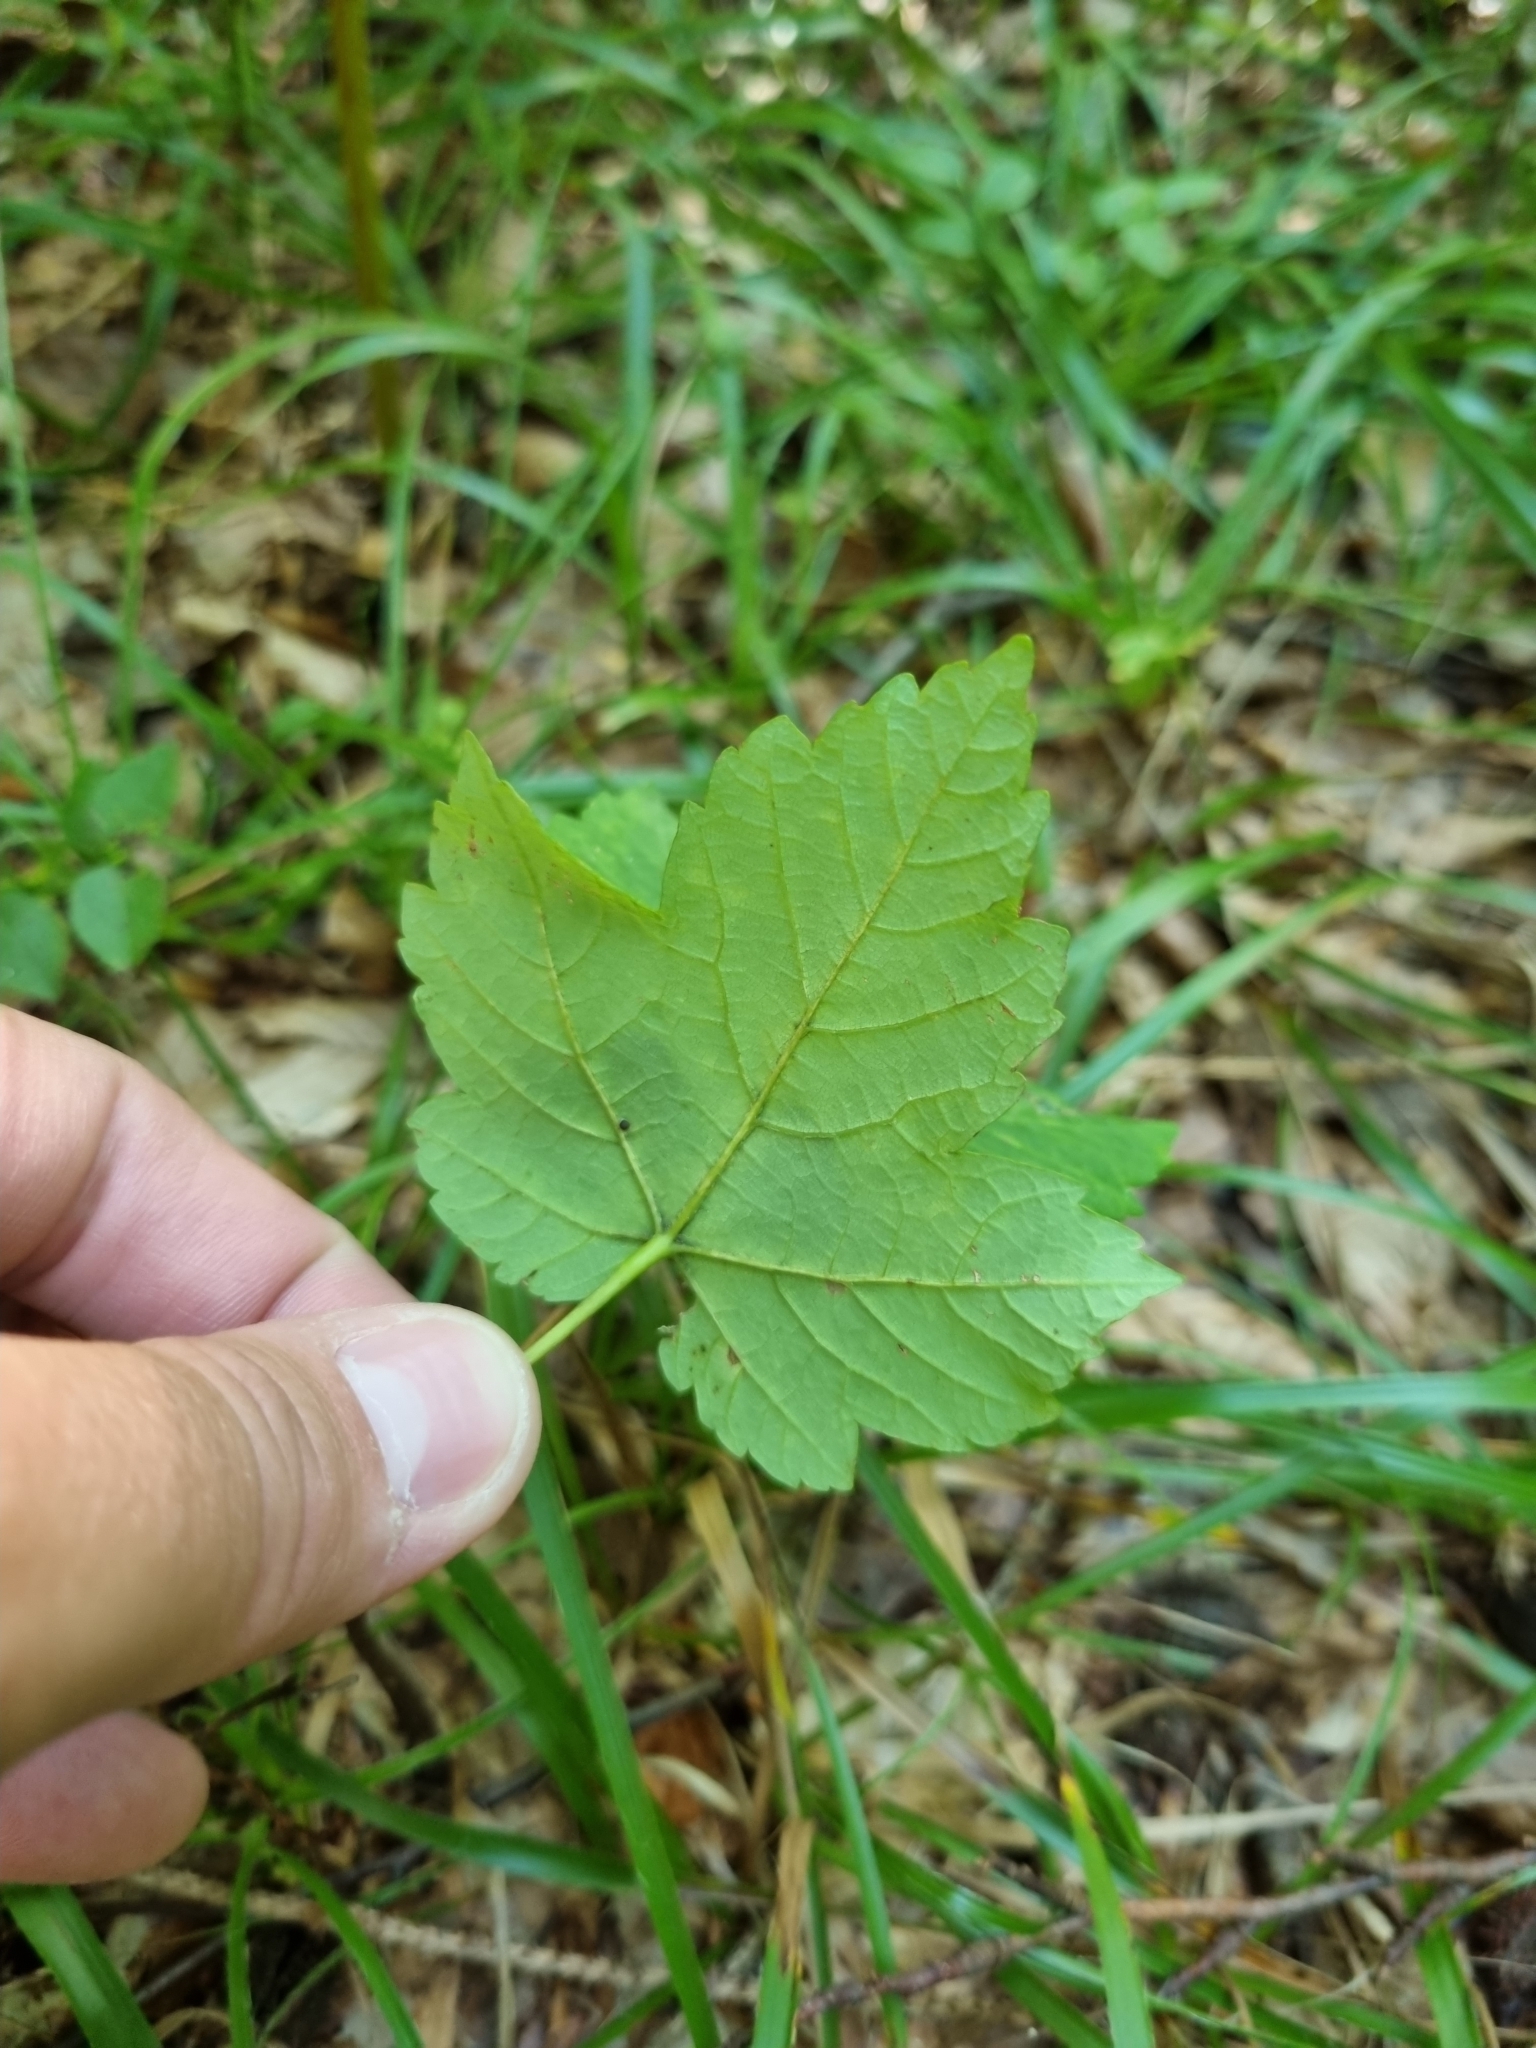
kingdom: Plantae
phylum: Tracheophyta
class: Magnoliopsida
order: Sapindales
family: Sapindaceae
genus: Acer
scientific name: Acer pseudoplatanus
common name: Sycamore
